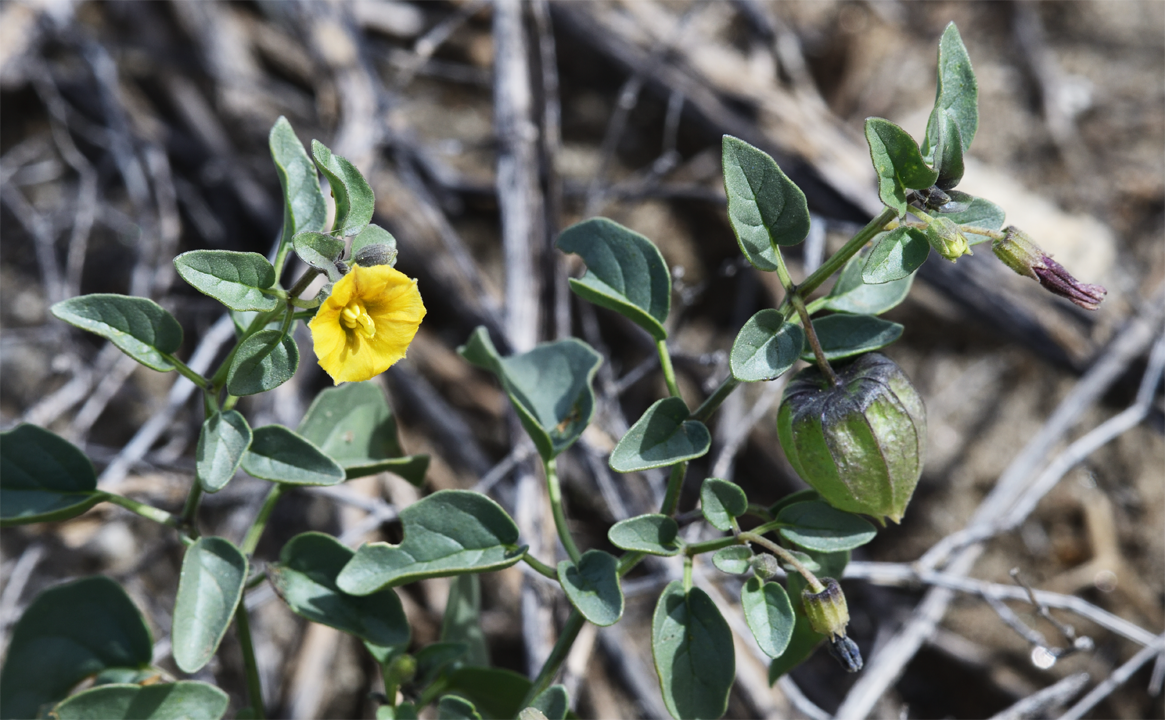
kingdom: Plantae
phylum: Tracheophyta
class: Magnoliopsida
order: Solanales
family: Solanaceae
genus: Physalis
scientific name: Physalis crassifolia
